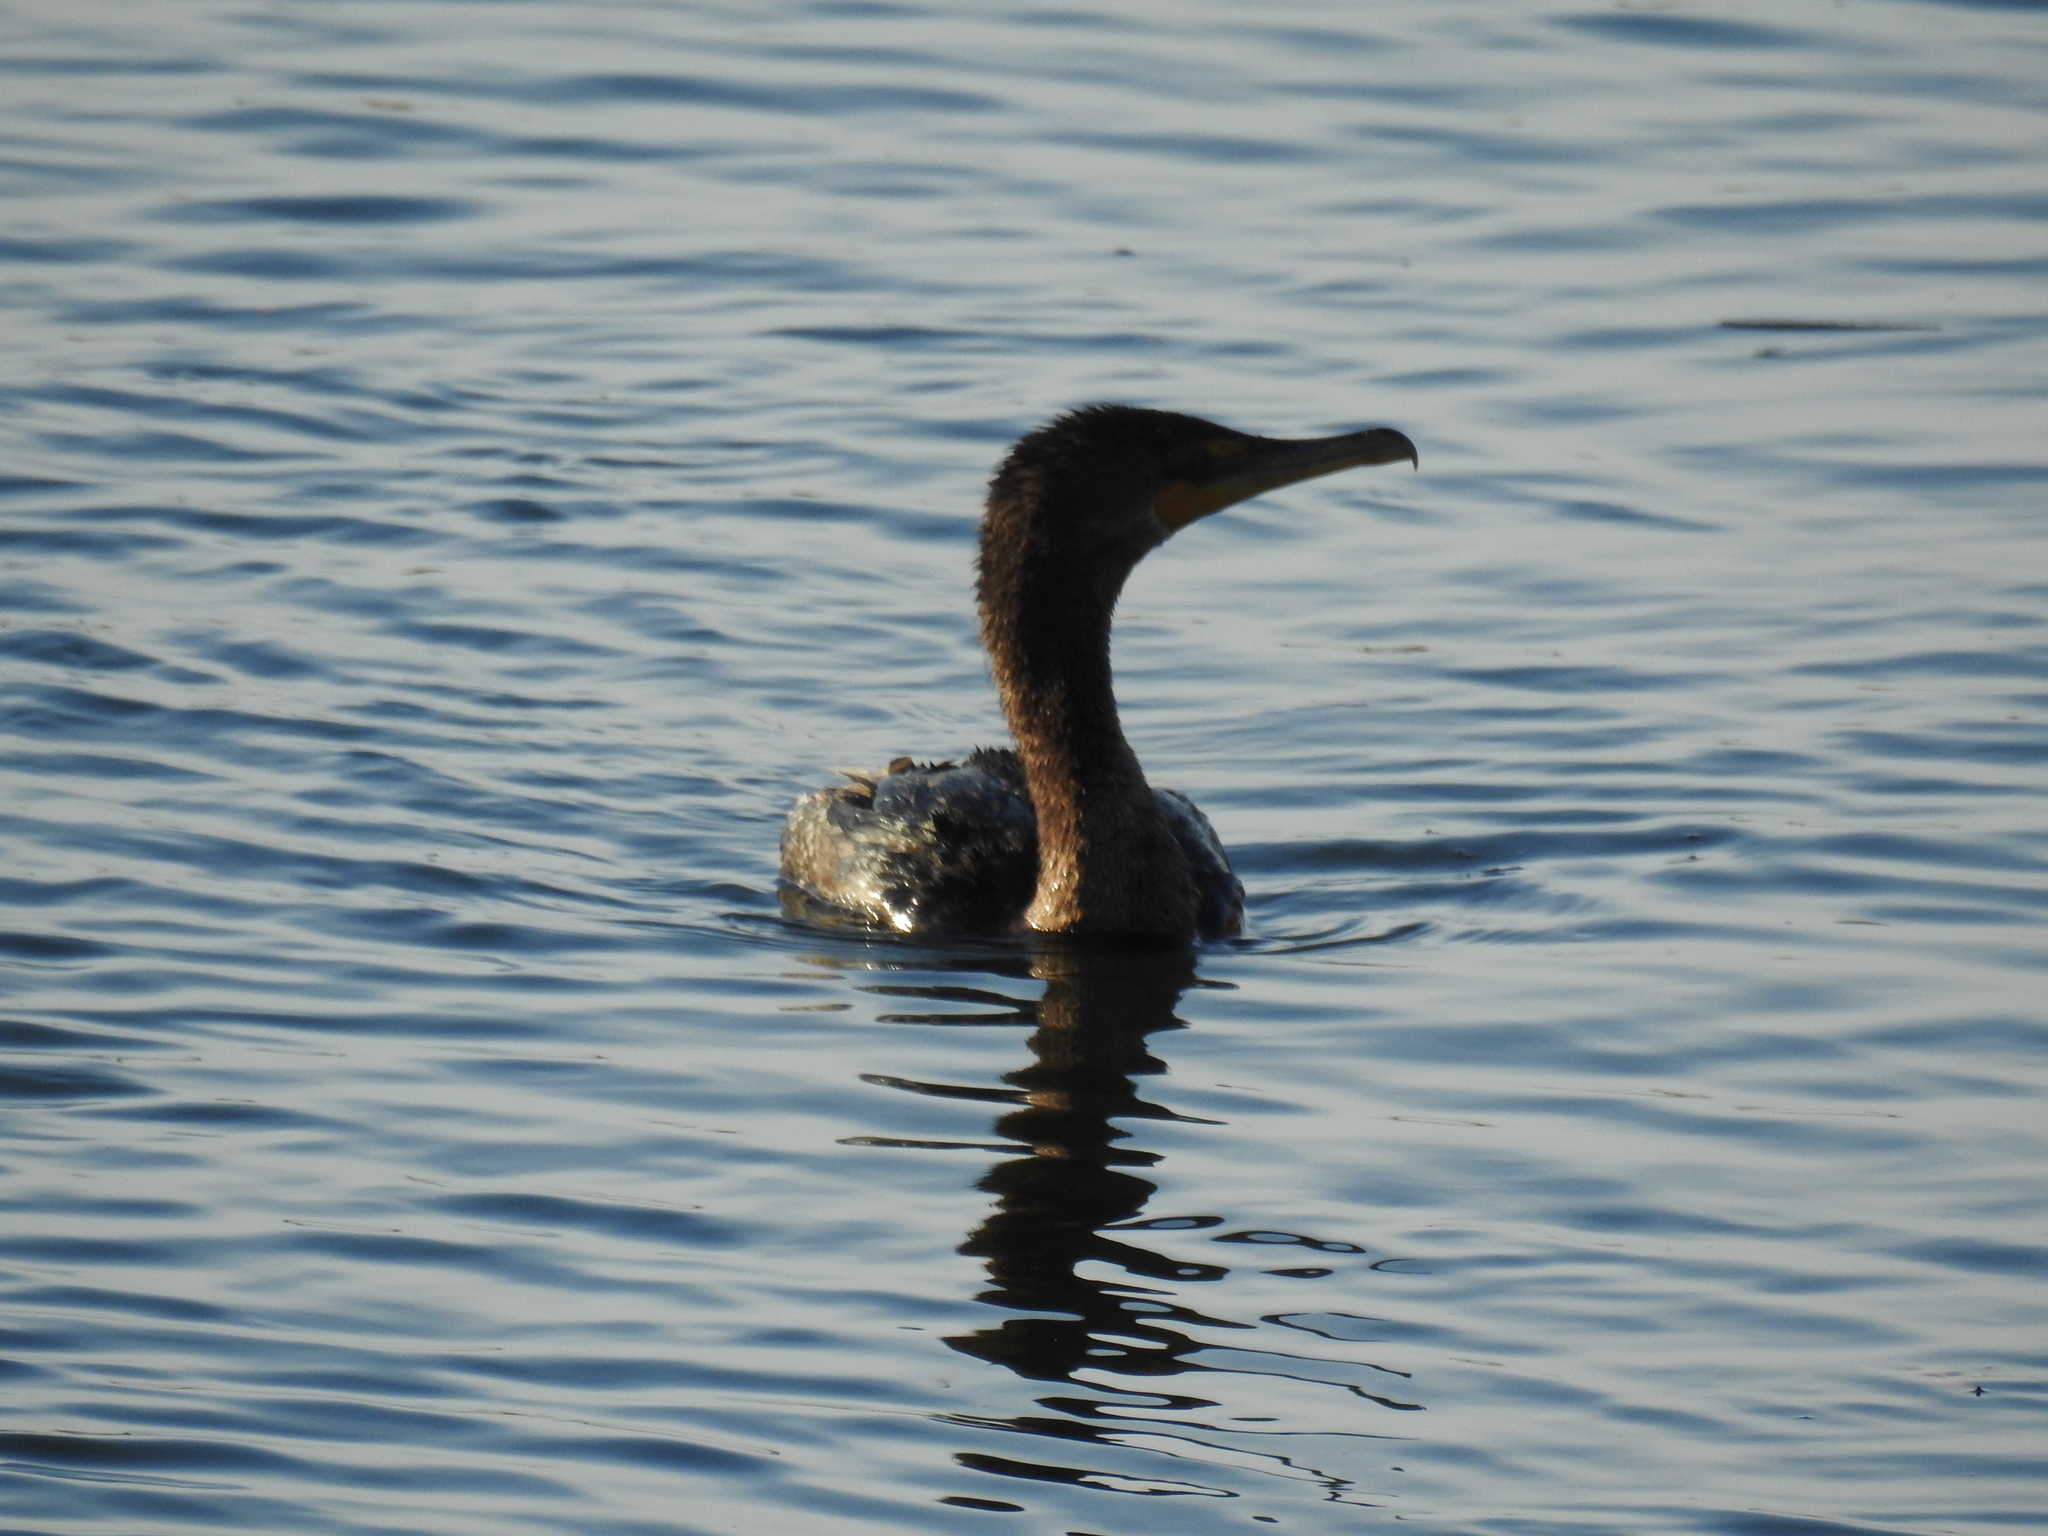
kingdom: Animalia
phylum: Chordata
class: Aves
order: Suliformes
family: Phalacrocoracidae
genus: Phalacrocorax
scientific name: Phalacrocorax auritus
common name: Double-crested cormorant
